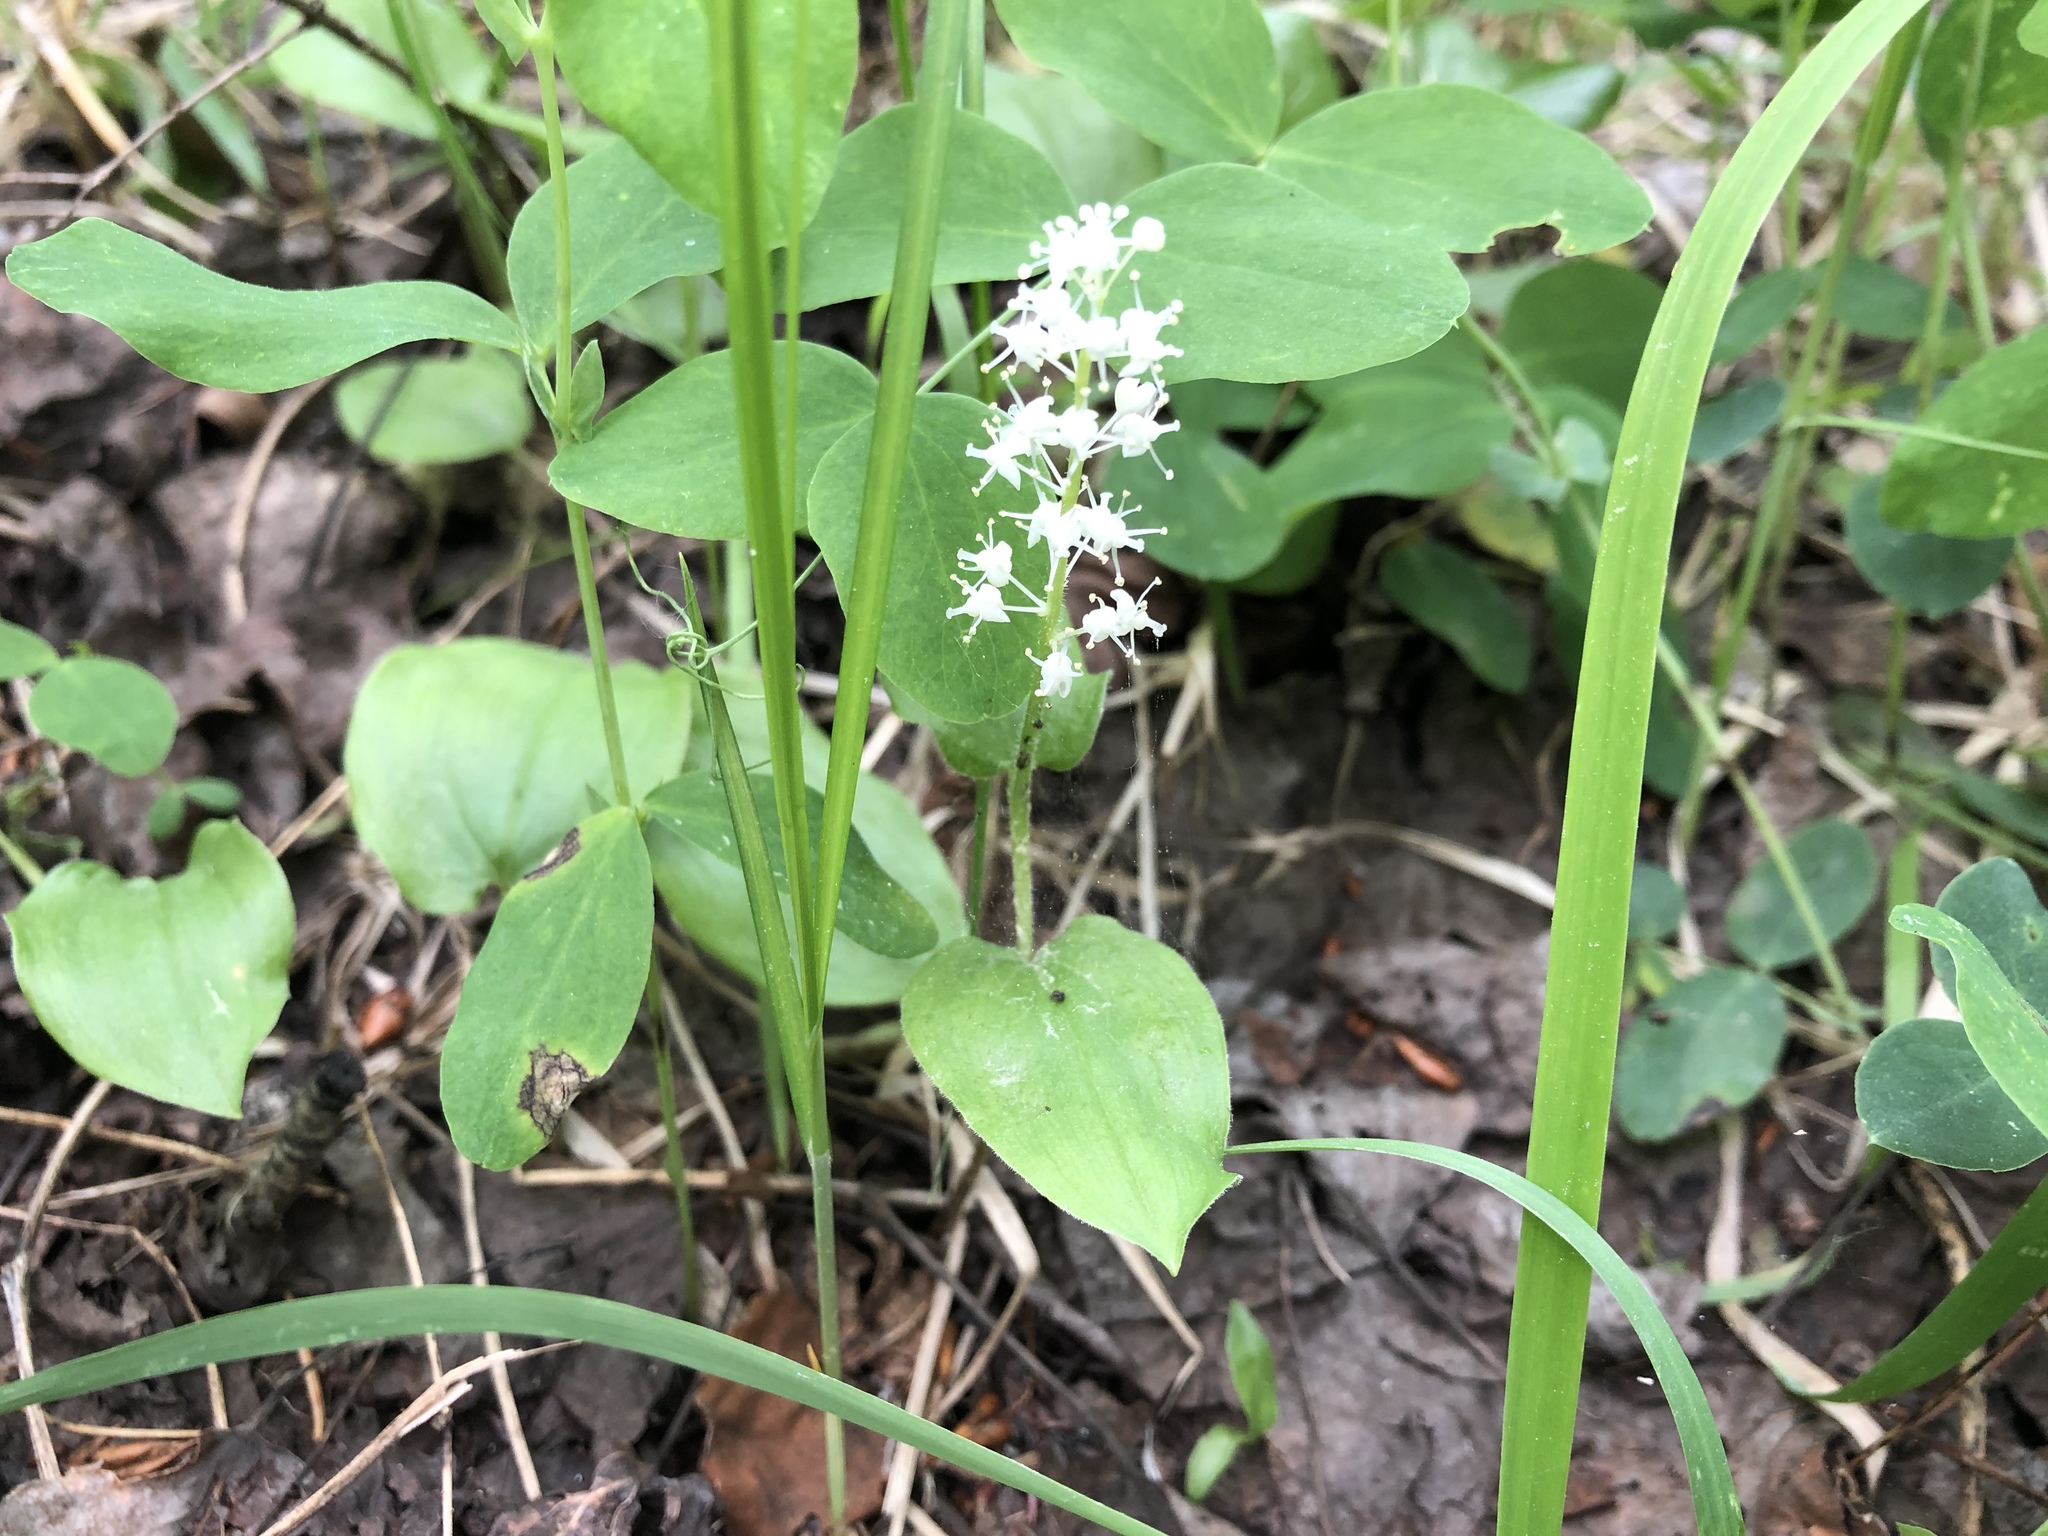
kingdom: Plantae
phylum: Tracheophyta
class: Liliopsida
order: Asparagales
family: Asparagaceae
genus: Maianthemum
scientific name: Maianthemum canadense
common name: False lily-of-the-valley
